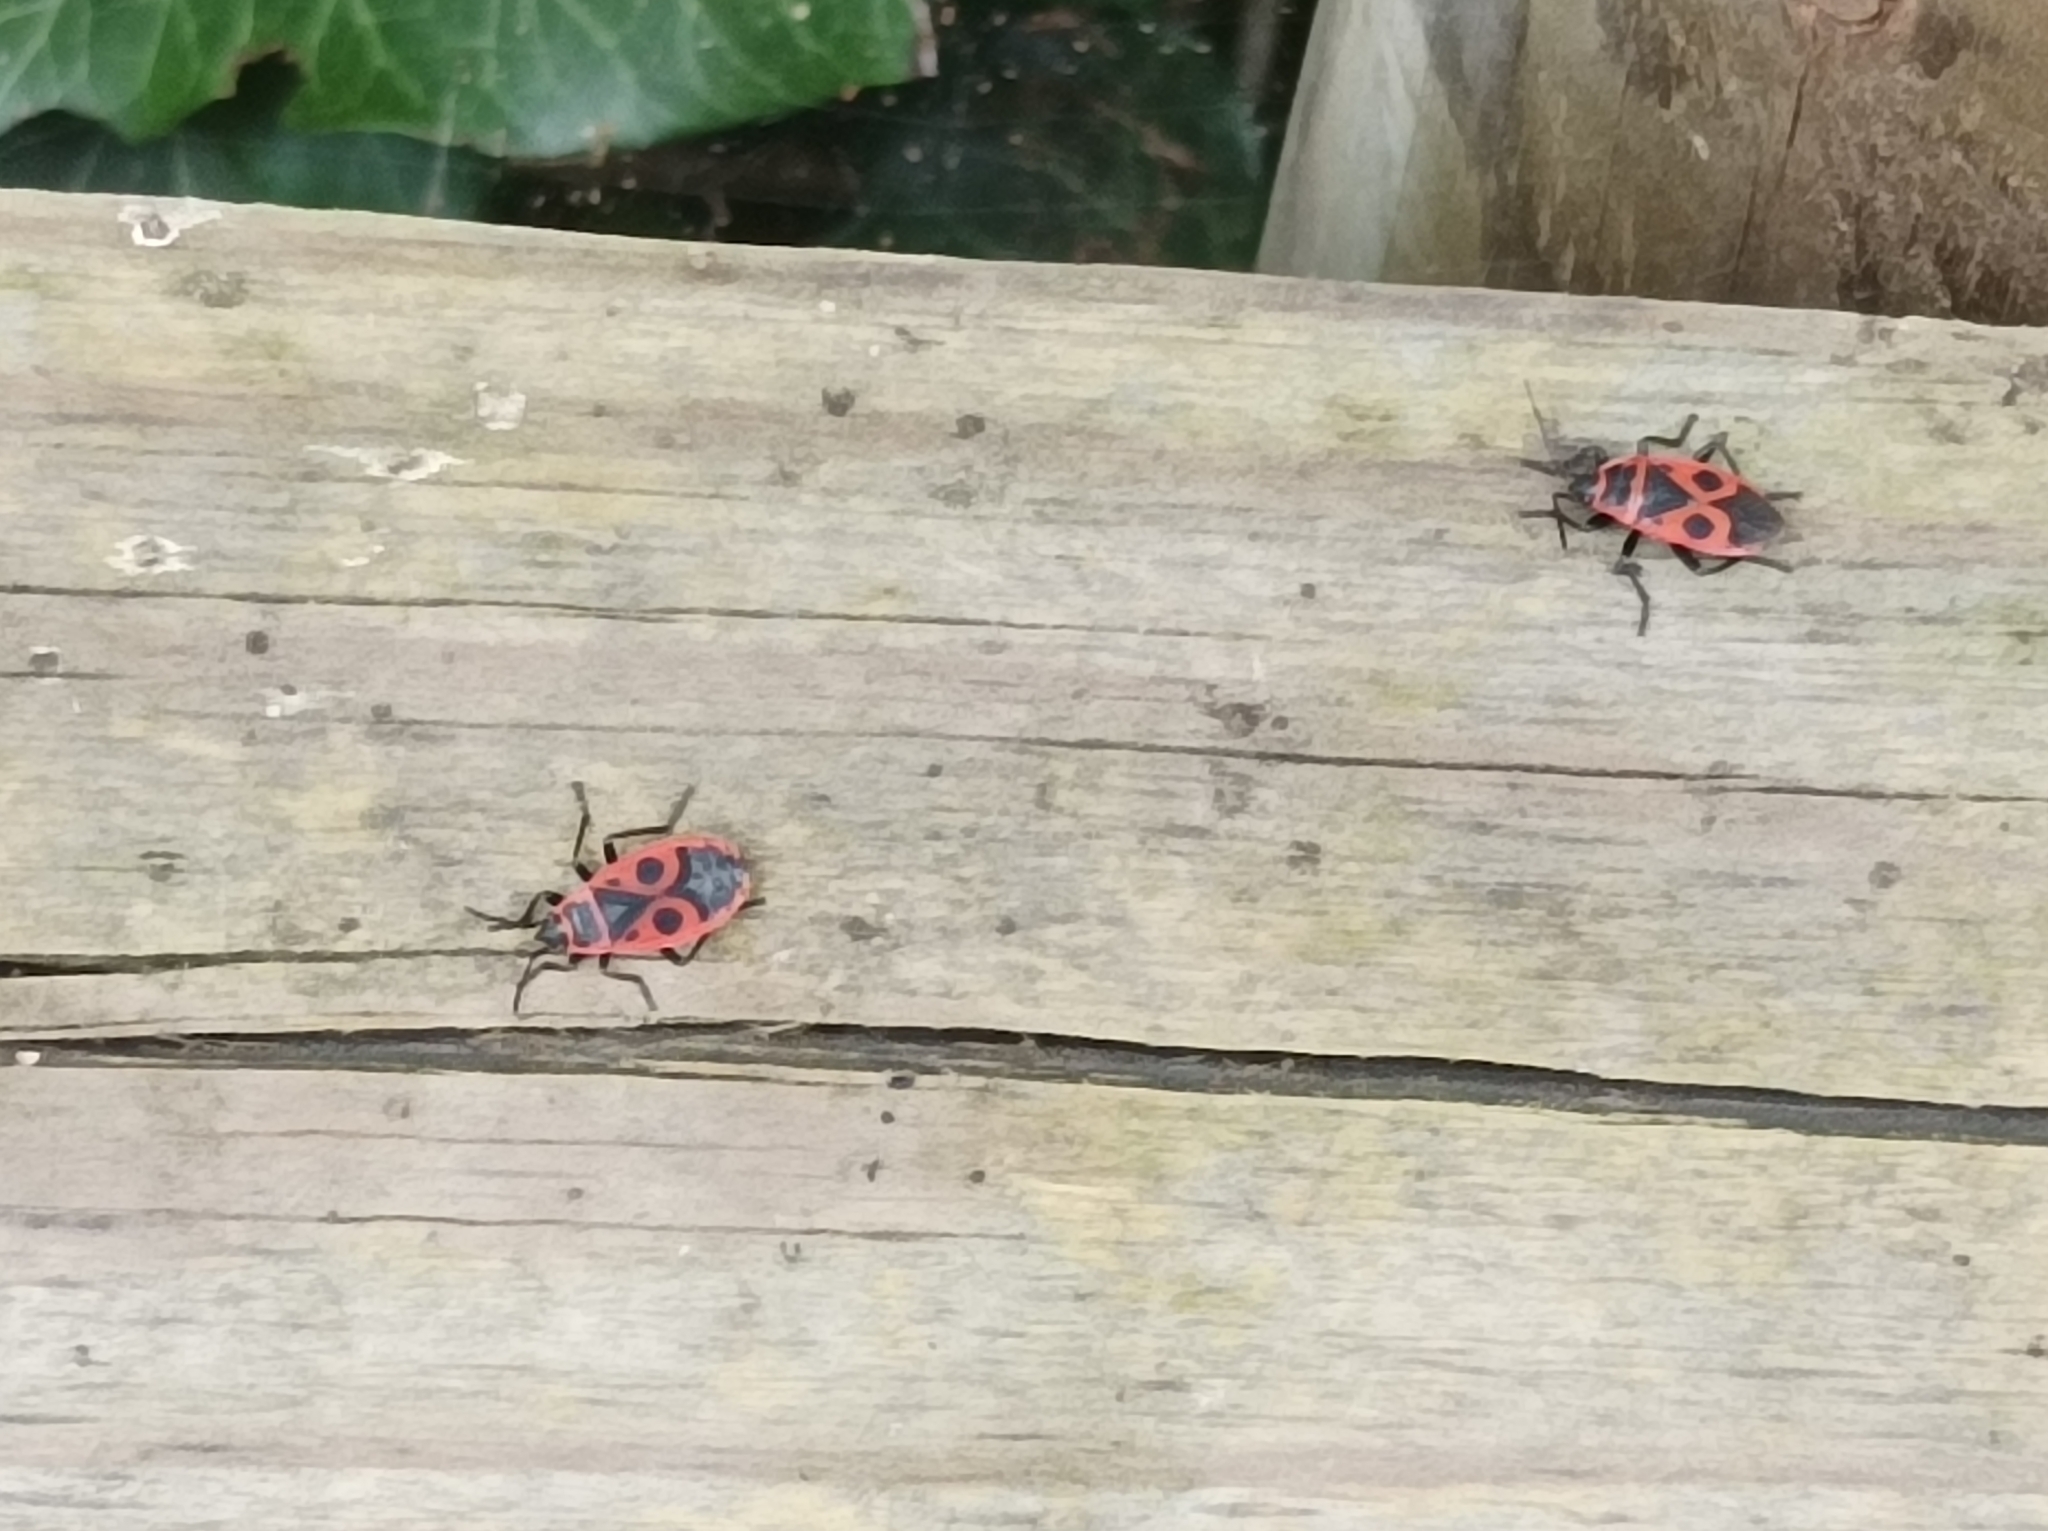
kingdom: Animalia
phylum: Arthropoda
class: Insecta
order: Hemiptera
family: Pyrrhocoridae
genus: Pyrrhocoris
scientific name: Pyrrhocoris apterus
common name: Firebug
